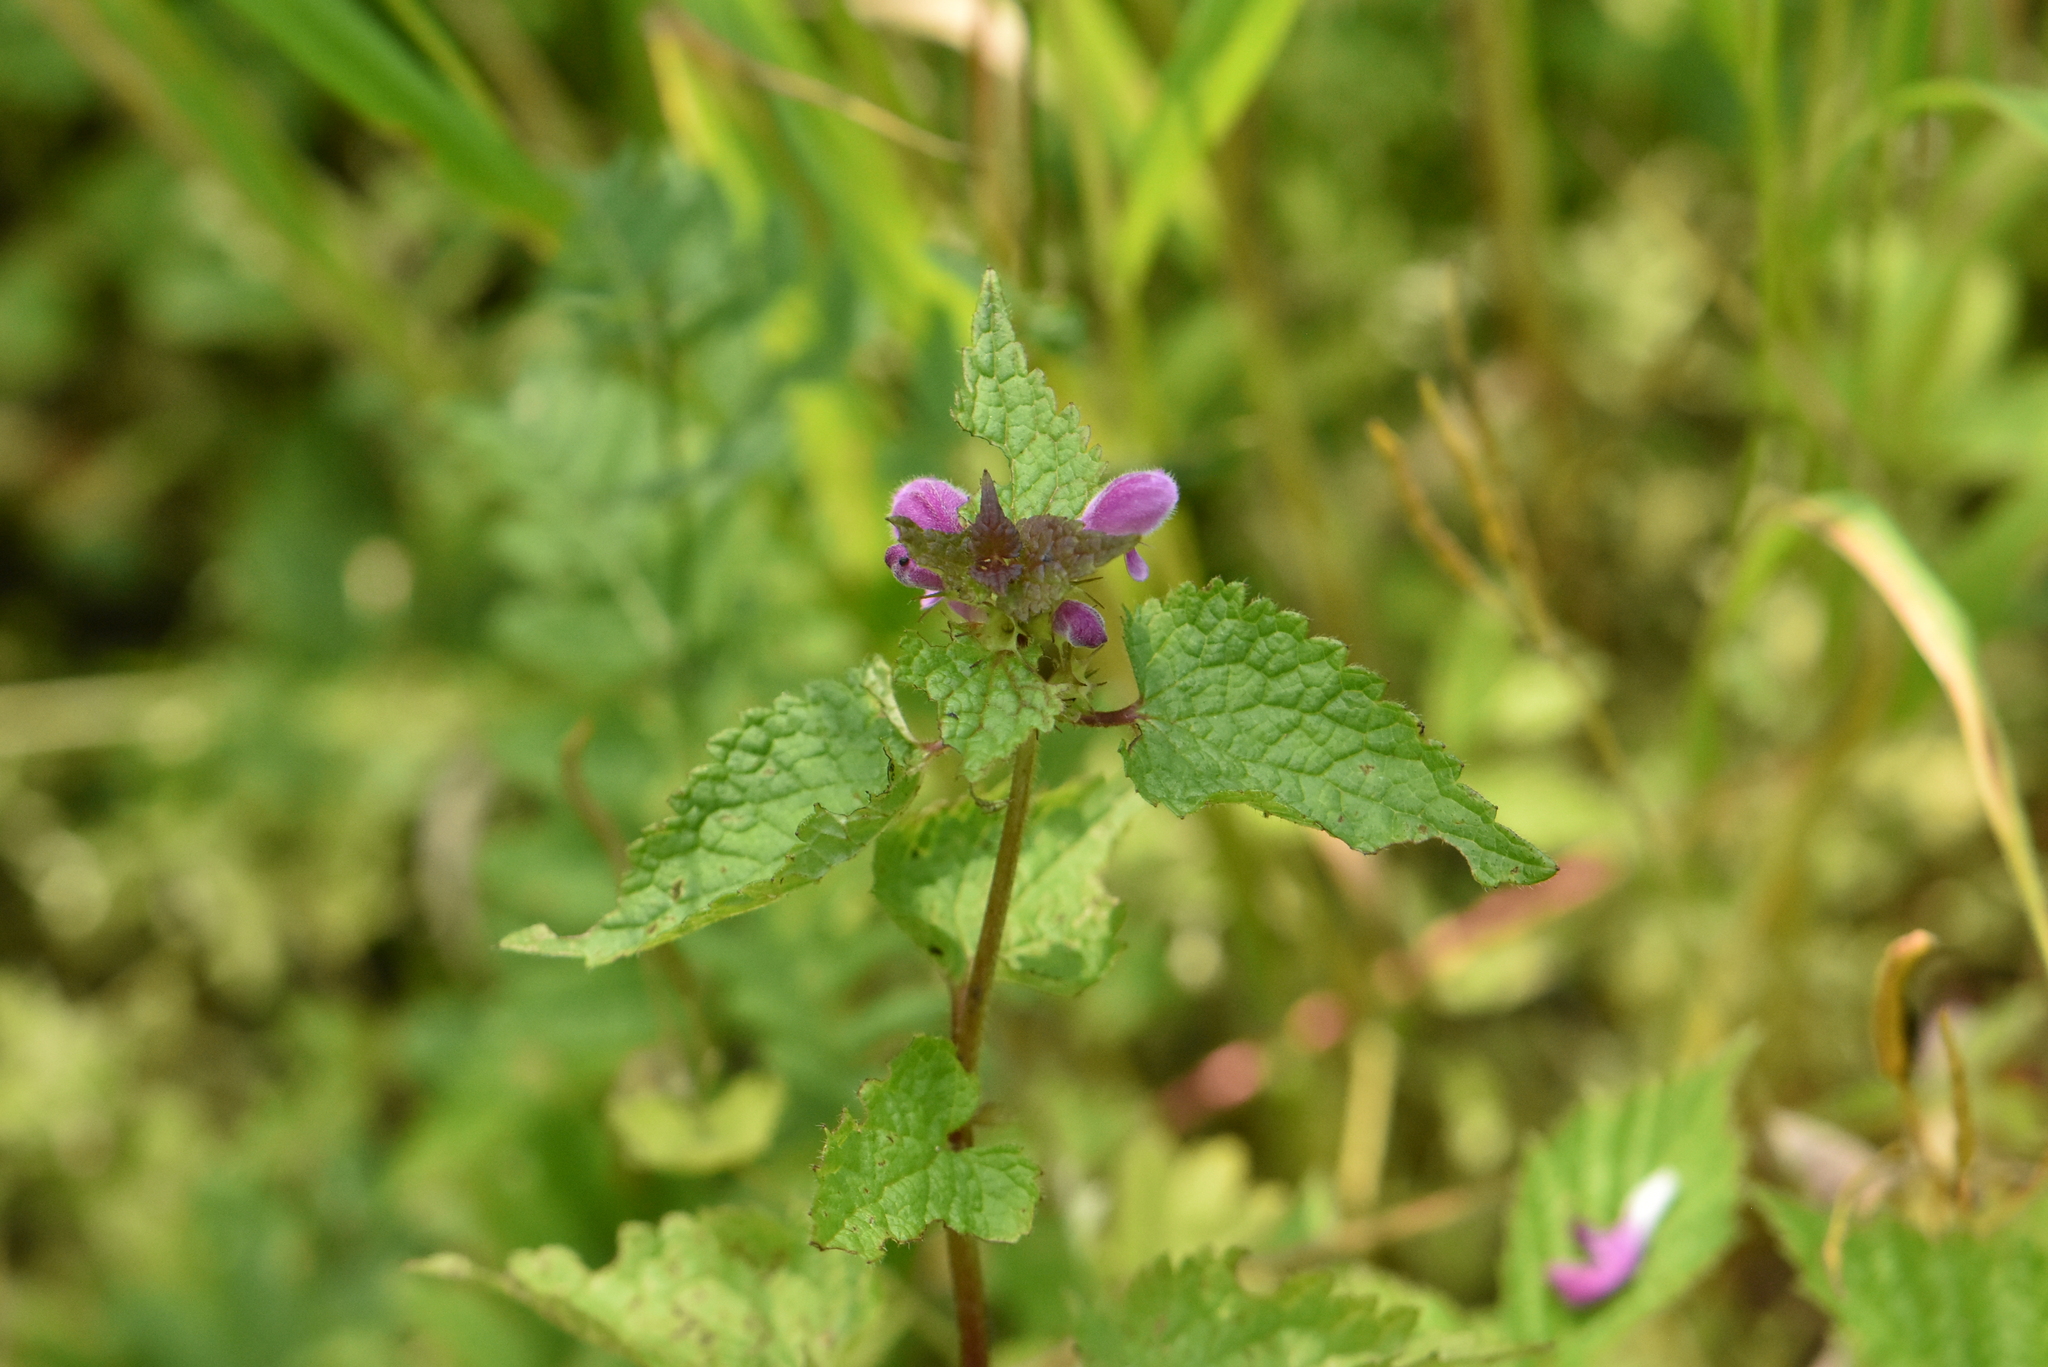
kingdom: Plantae
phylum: Tracheophyta
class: Magnoliopsida
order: Lamiales
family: Lamiaceae
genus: Lamium
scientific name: Lamium maculatum
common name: Spotted dead-nettle
